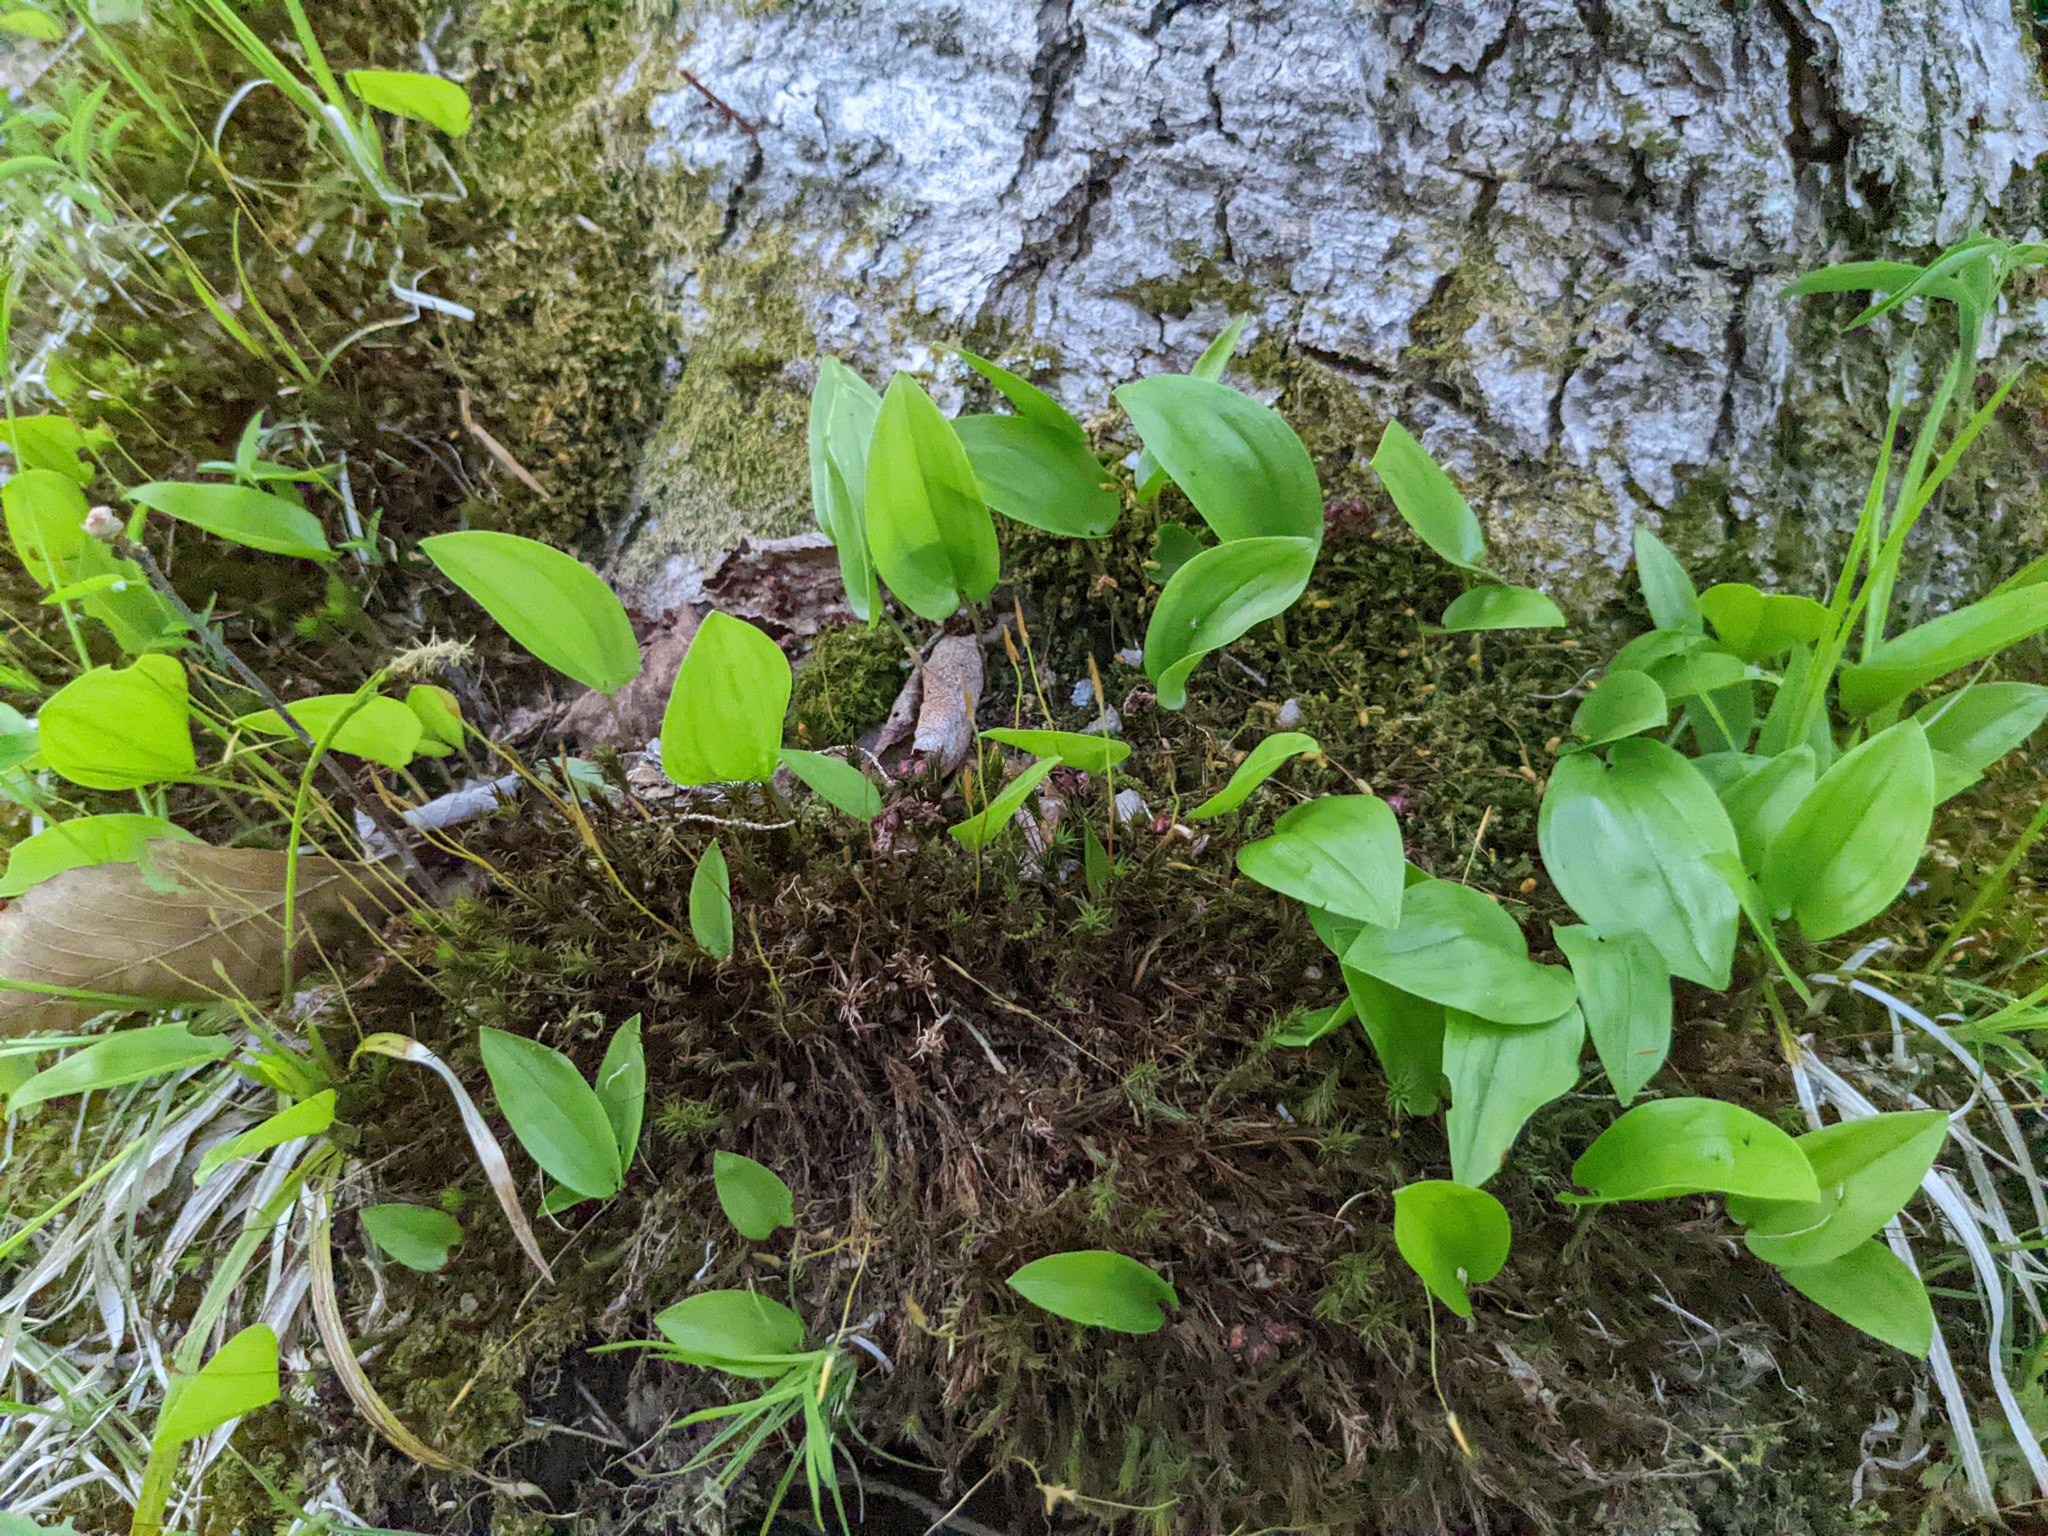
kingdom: Plantae
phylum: Tracheophyta
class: Liliopsida
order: Asparagales
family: Asparagaceae
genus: Maianthemum
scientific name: Maianthemum canadense
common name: False lily-of-the-valley
